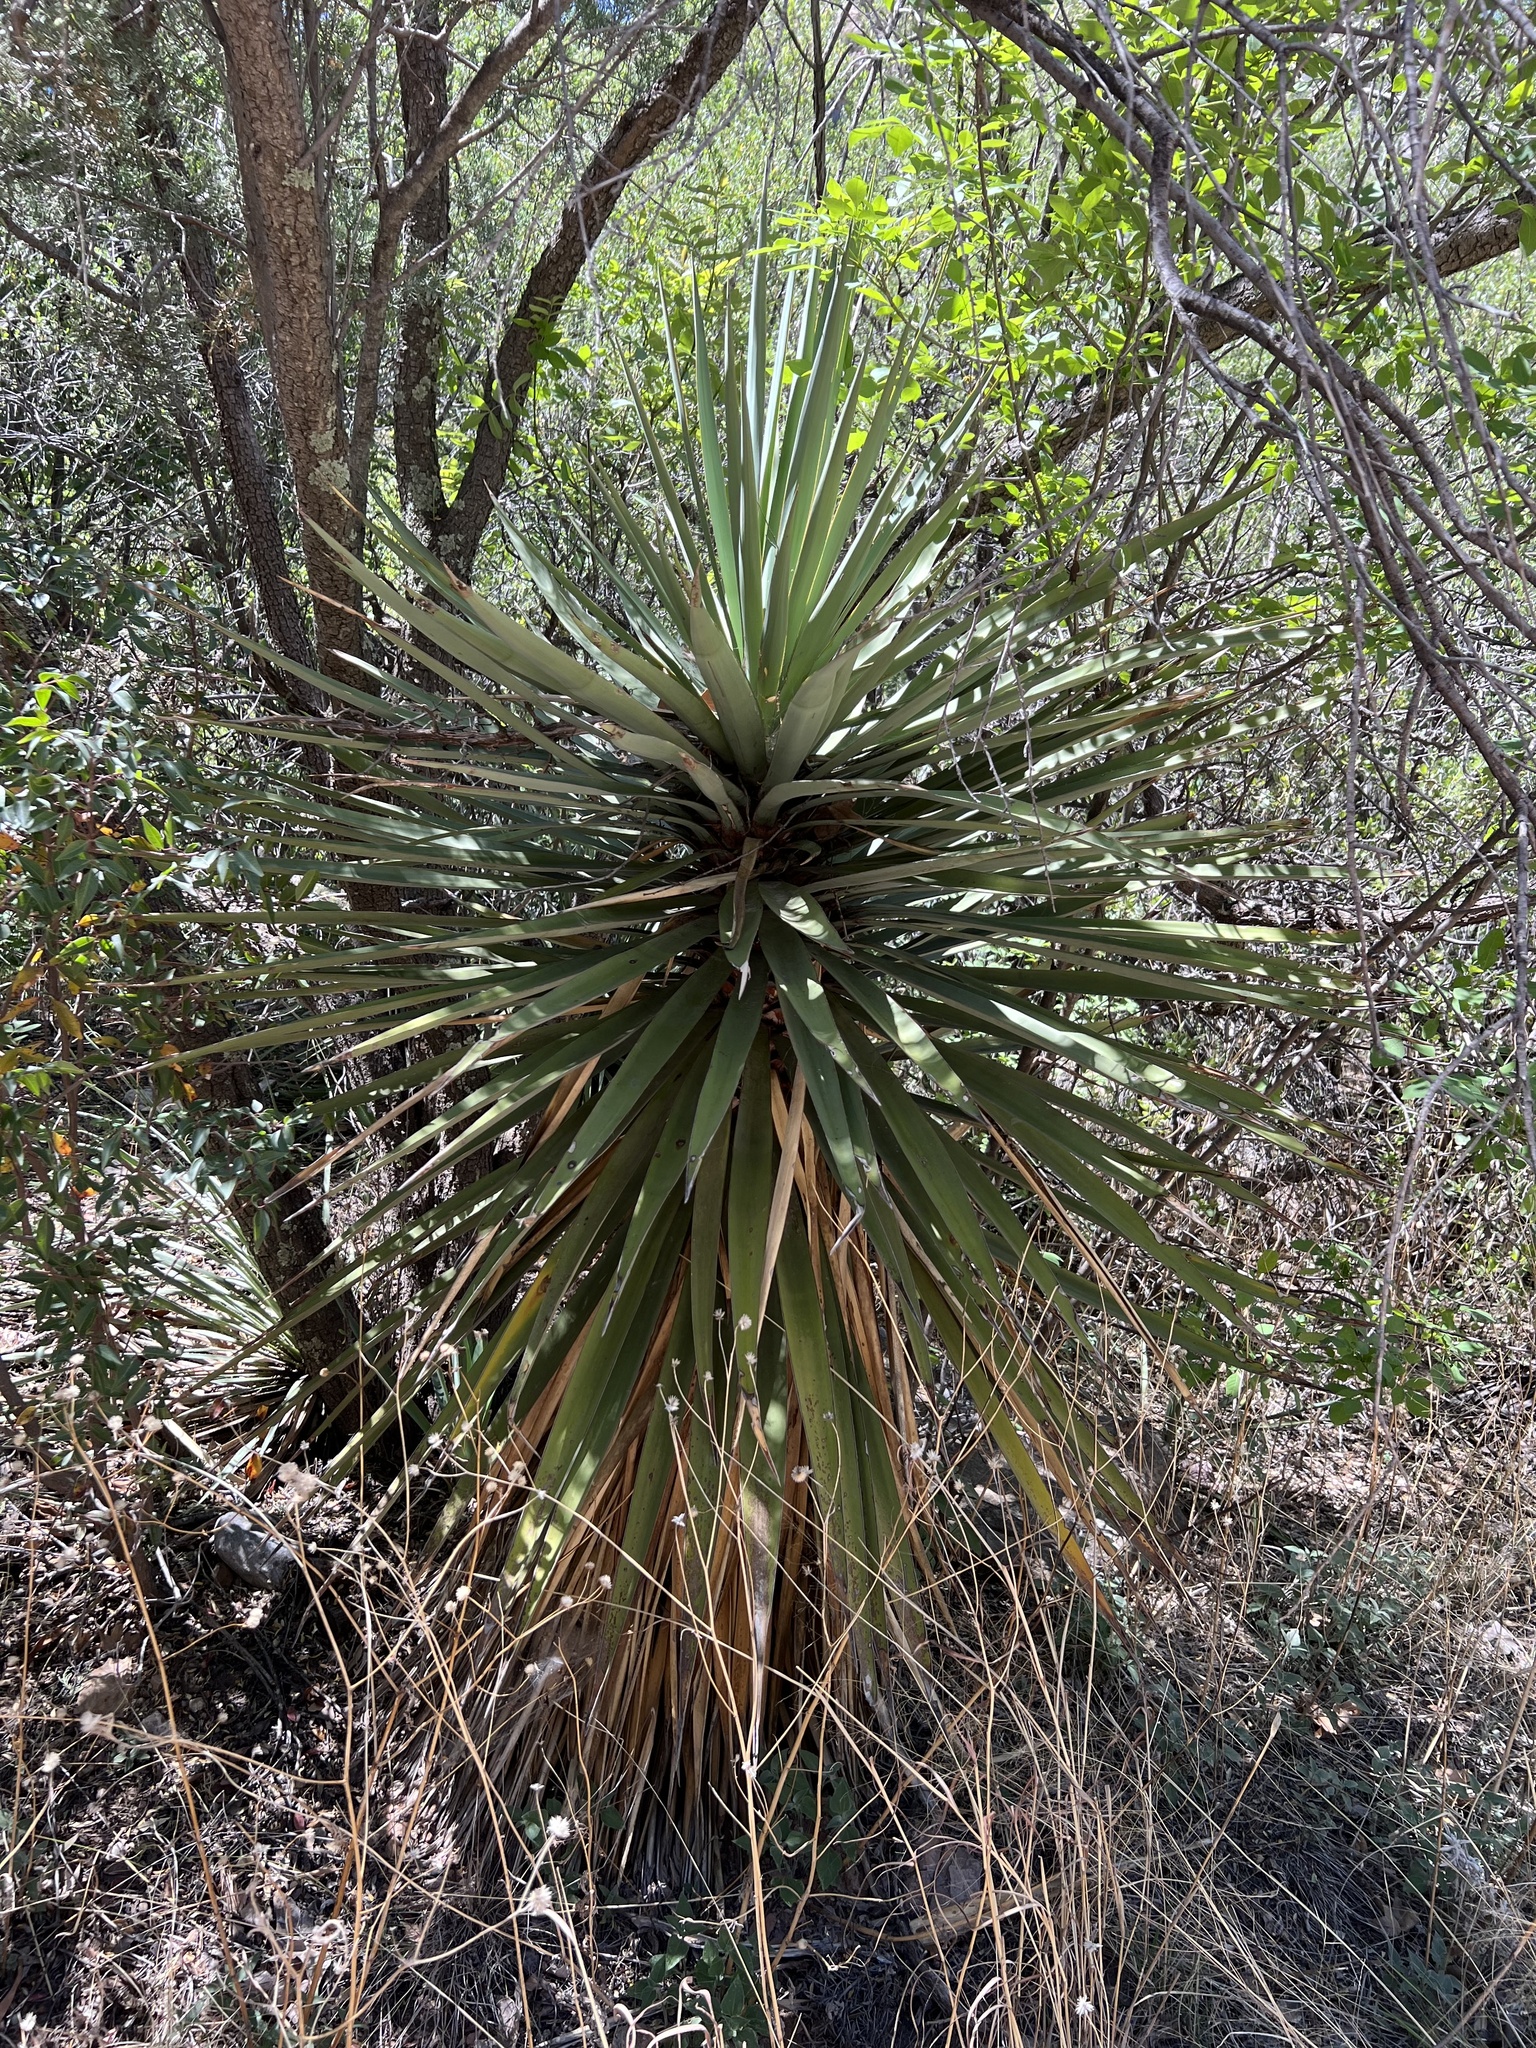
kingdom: Plantae
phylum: Tracheophyta
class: Liliopsida
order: Asparagales
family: Asparagaceae
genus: Yucca
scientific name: Yucca schottii
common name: Hoary yucca
